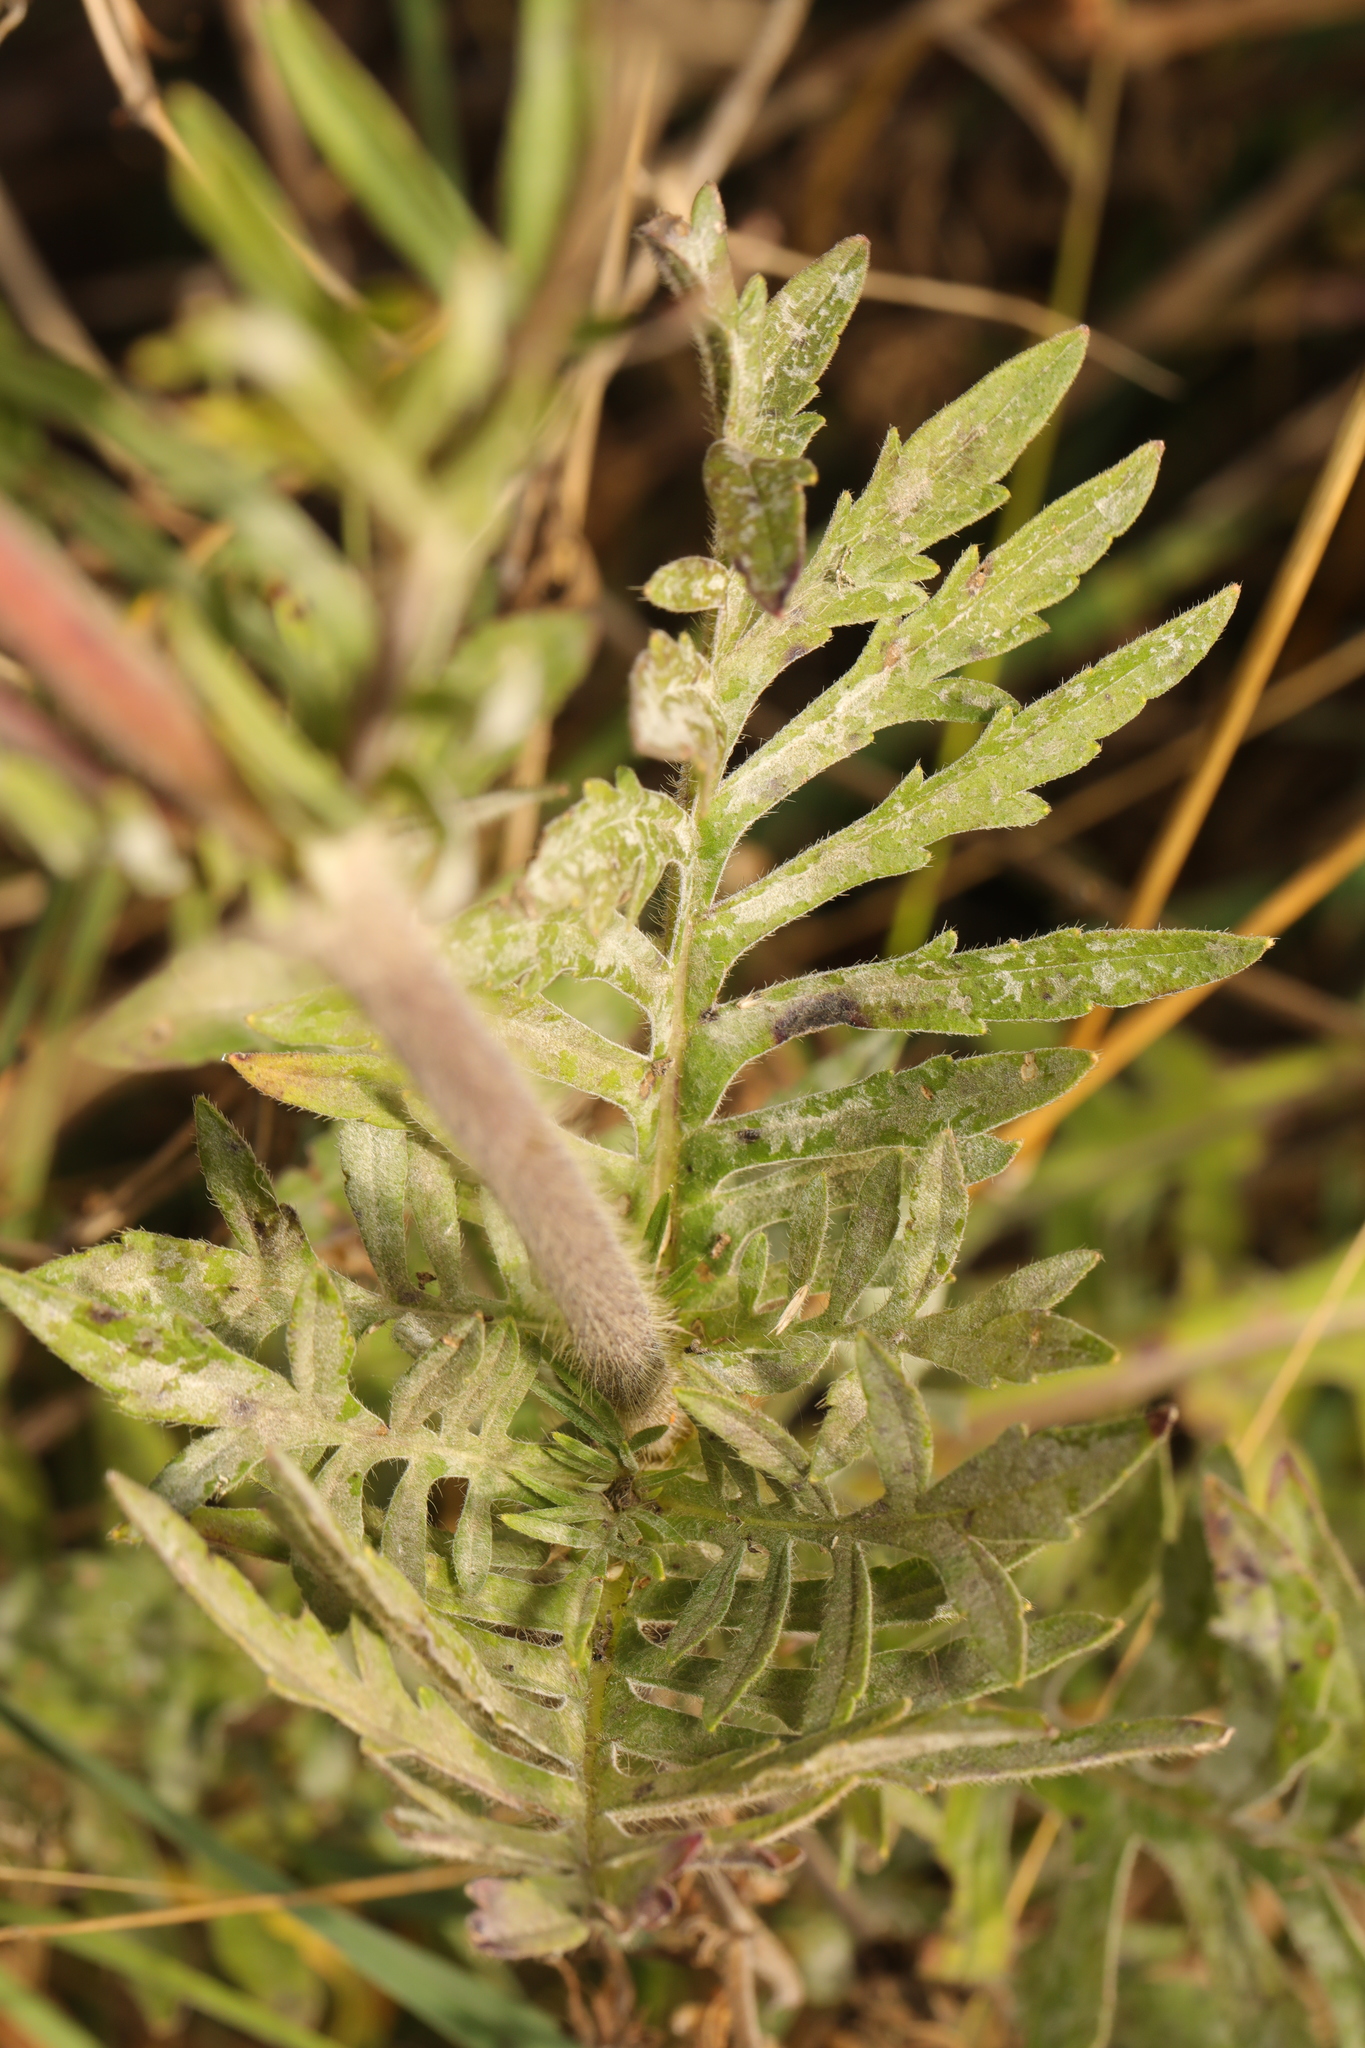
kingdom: Plantae
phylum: Tracheophyta
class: Magnoliopsida
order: Asterales
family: Asteraceae
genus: Jacobaea
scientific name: Jacobaea erucifolia
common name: Hoary ragwort
